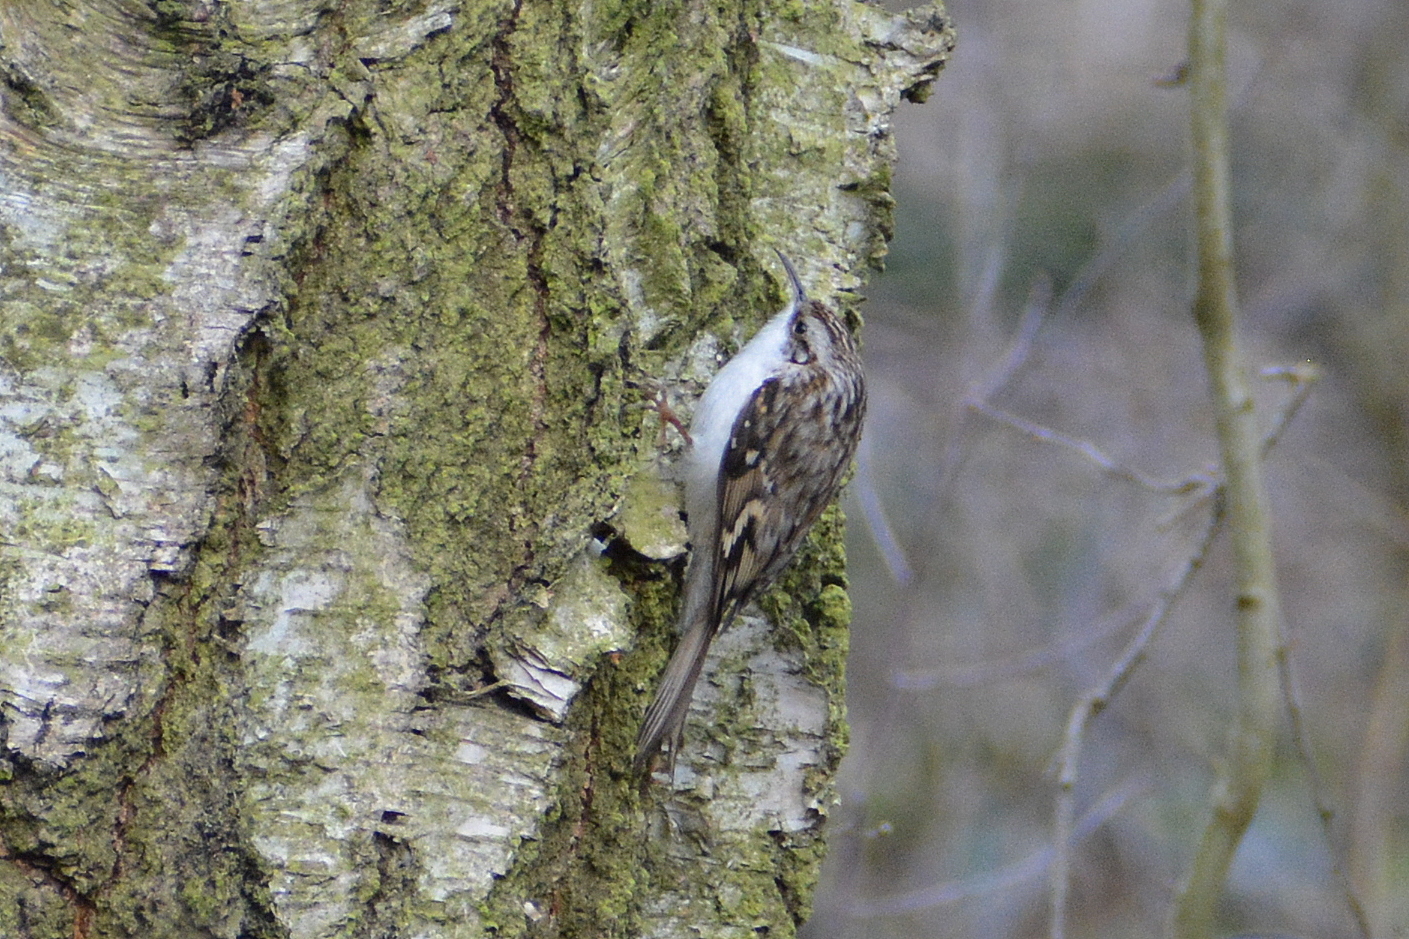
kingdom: Animalia
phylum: Chordata
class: Aves
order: Passeriformes
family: Certhiidae
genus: Certhia
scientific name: Certhia familiaris
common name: Eurasian treecreeper
